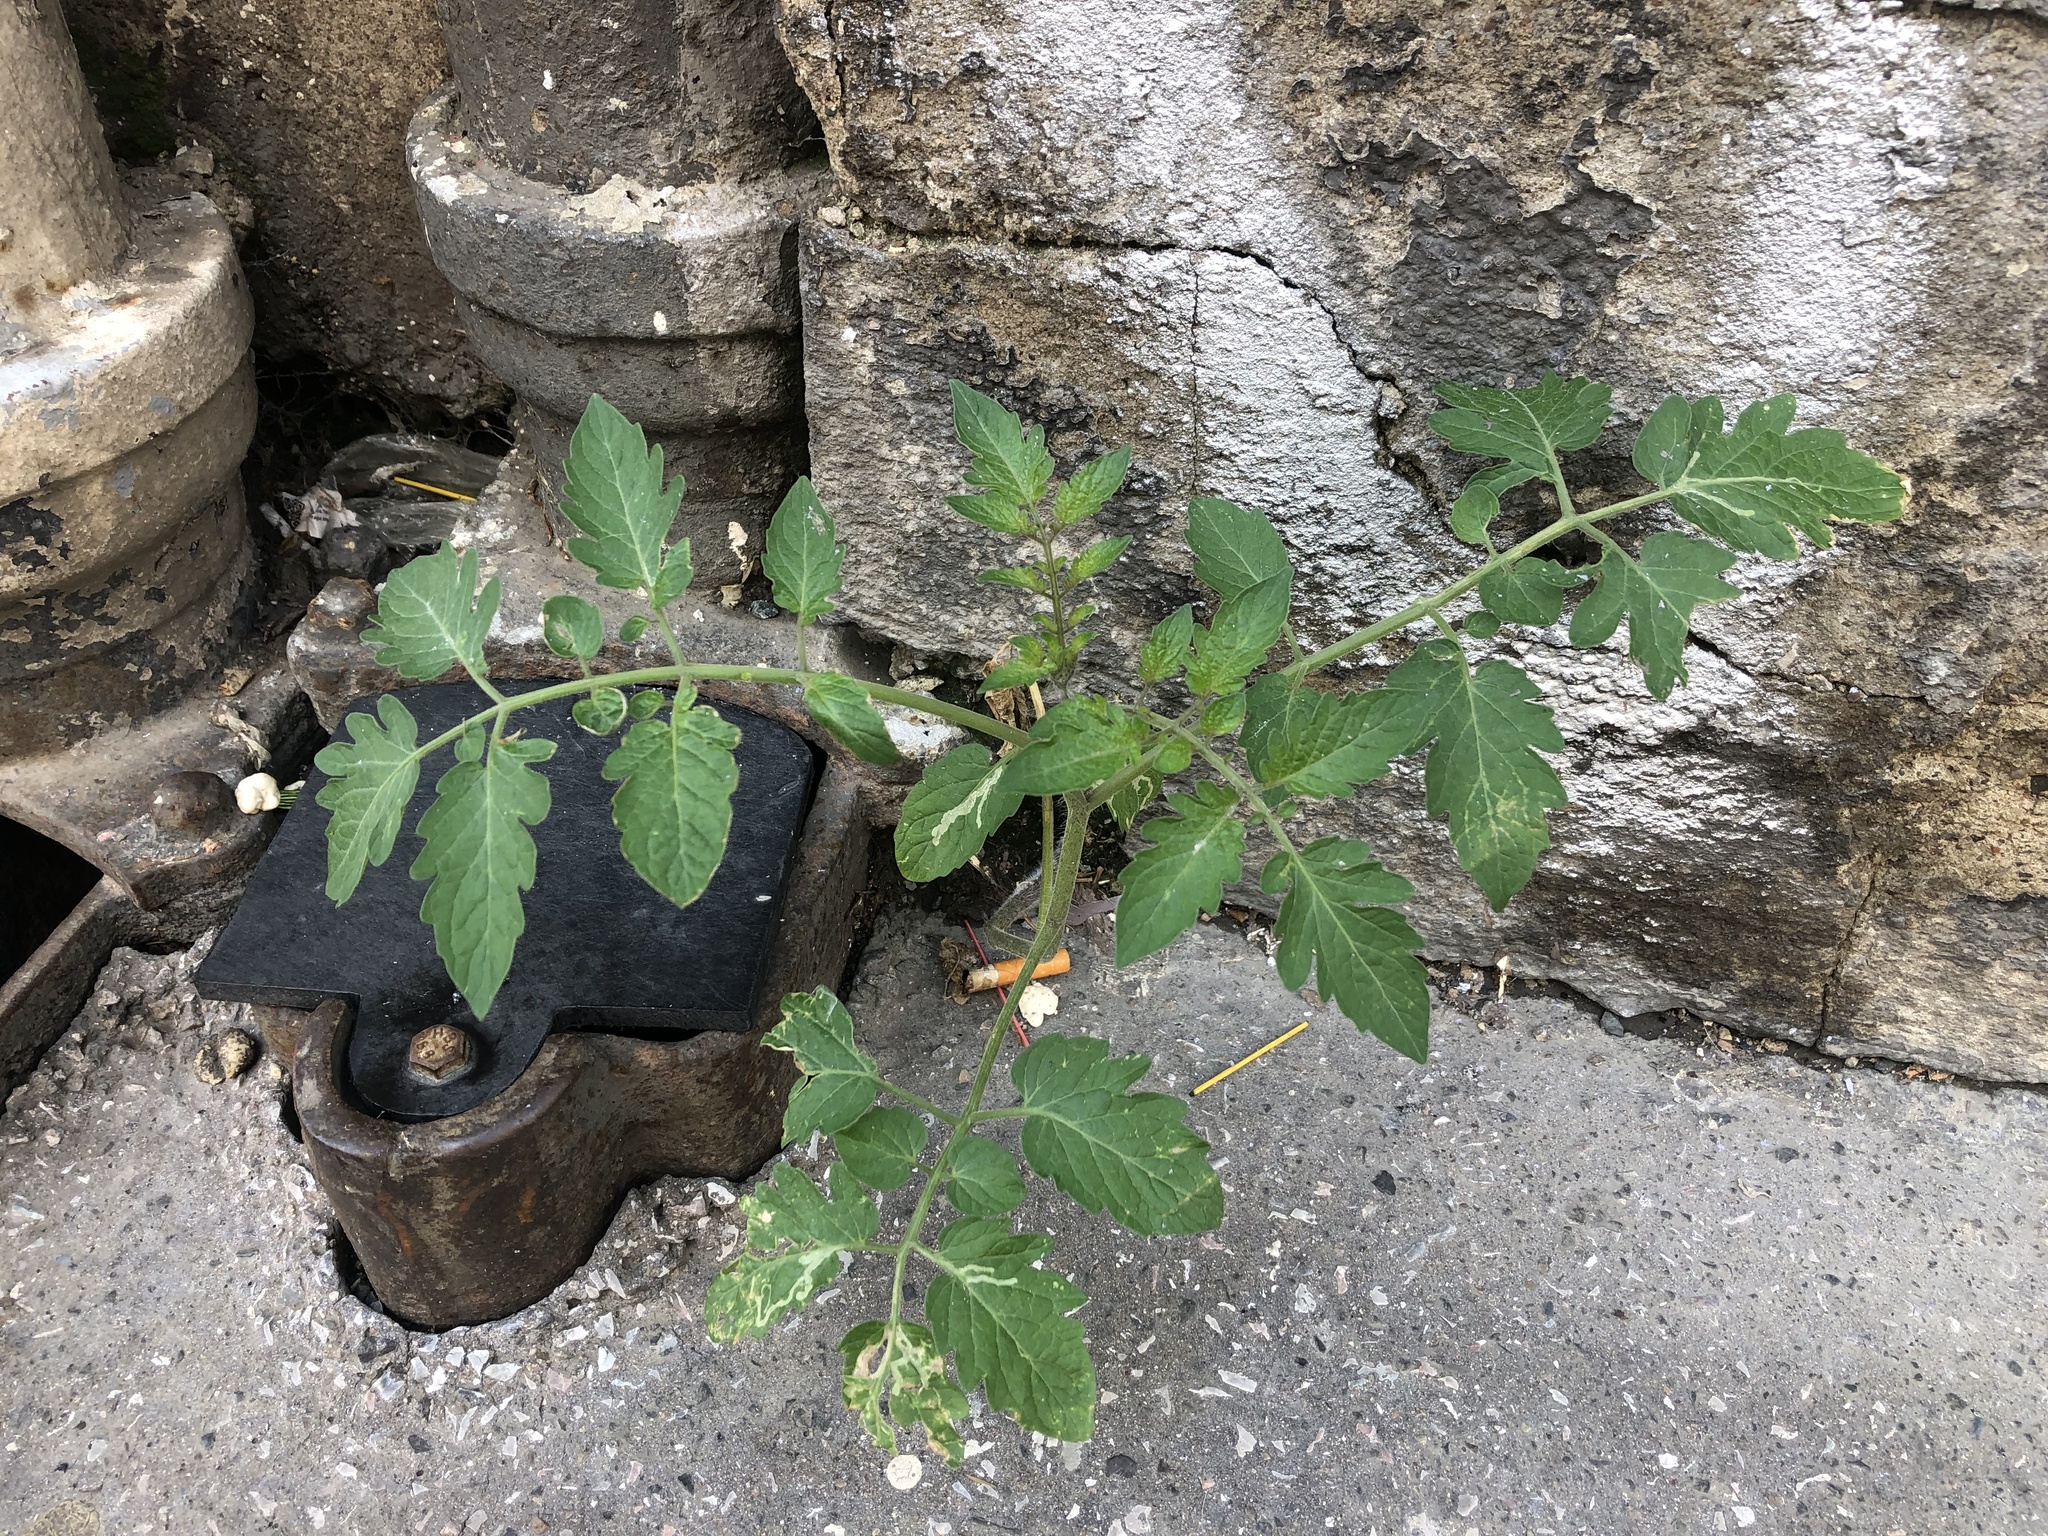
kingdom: Plantae
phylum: Tracheophyta
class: Magnoliopsida
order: Solanales
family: Solanaceae
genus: Solanum
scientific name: Solanum lycopersicum
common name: Garden tomato
